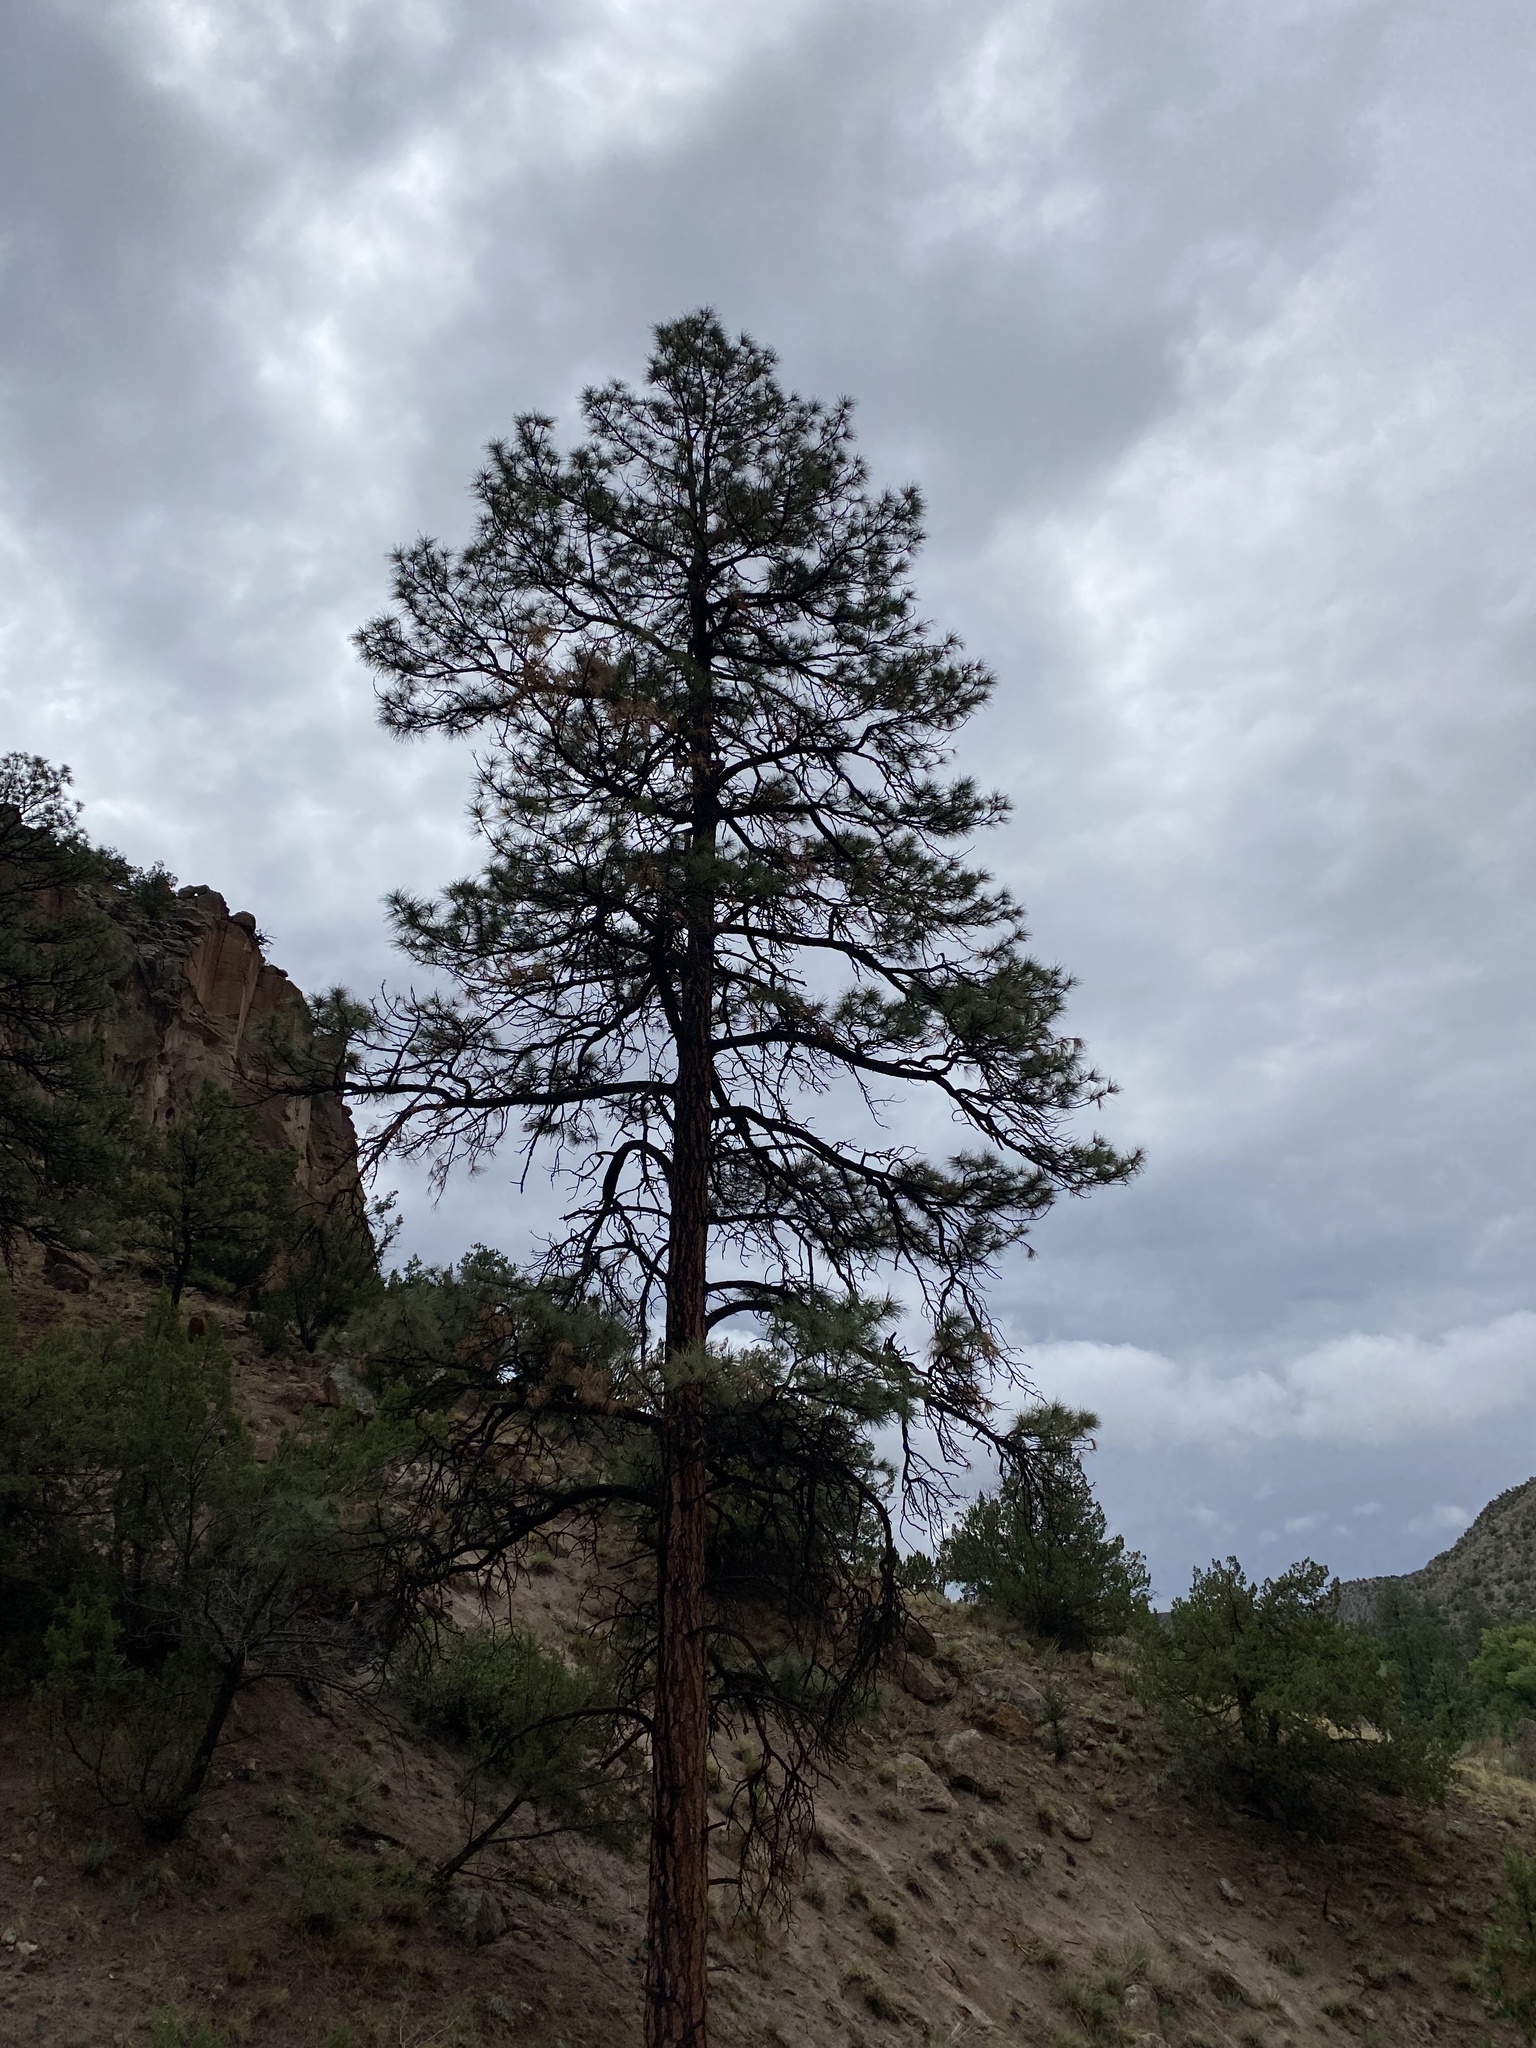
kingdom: Plantae
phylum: Tracheophyta
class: Pinopsida
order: Pinales
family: Pinaceae
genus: Pinus
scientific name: Pinus ponderosa
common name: Western yellow-pine
